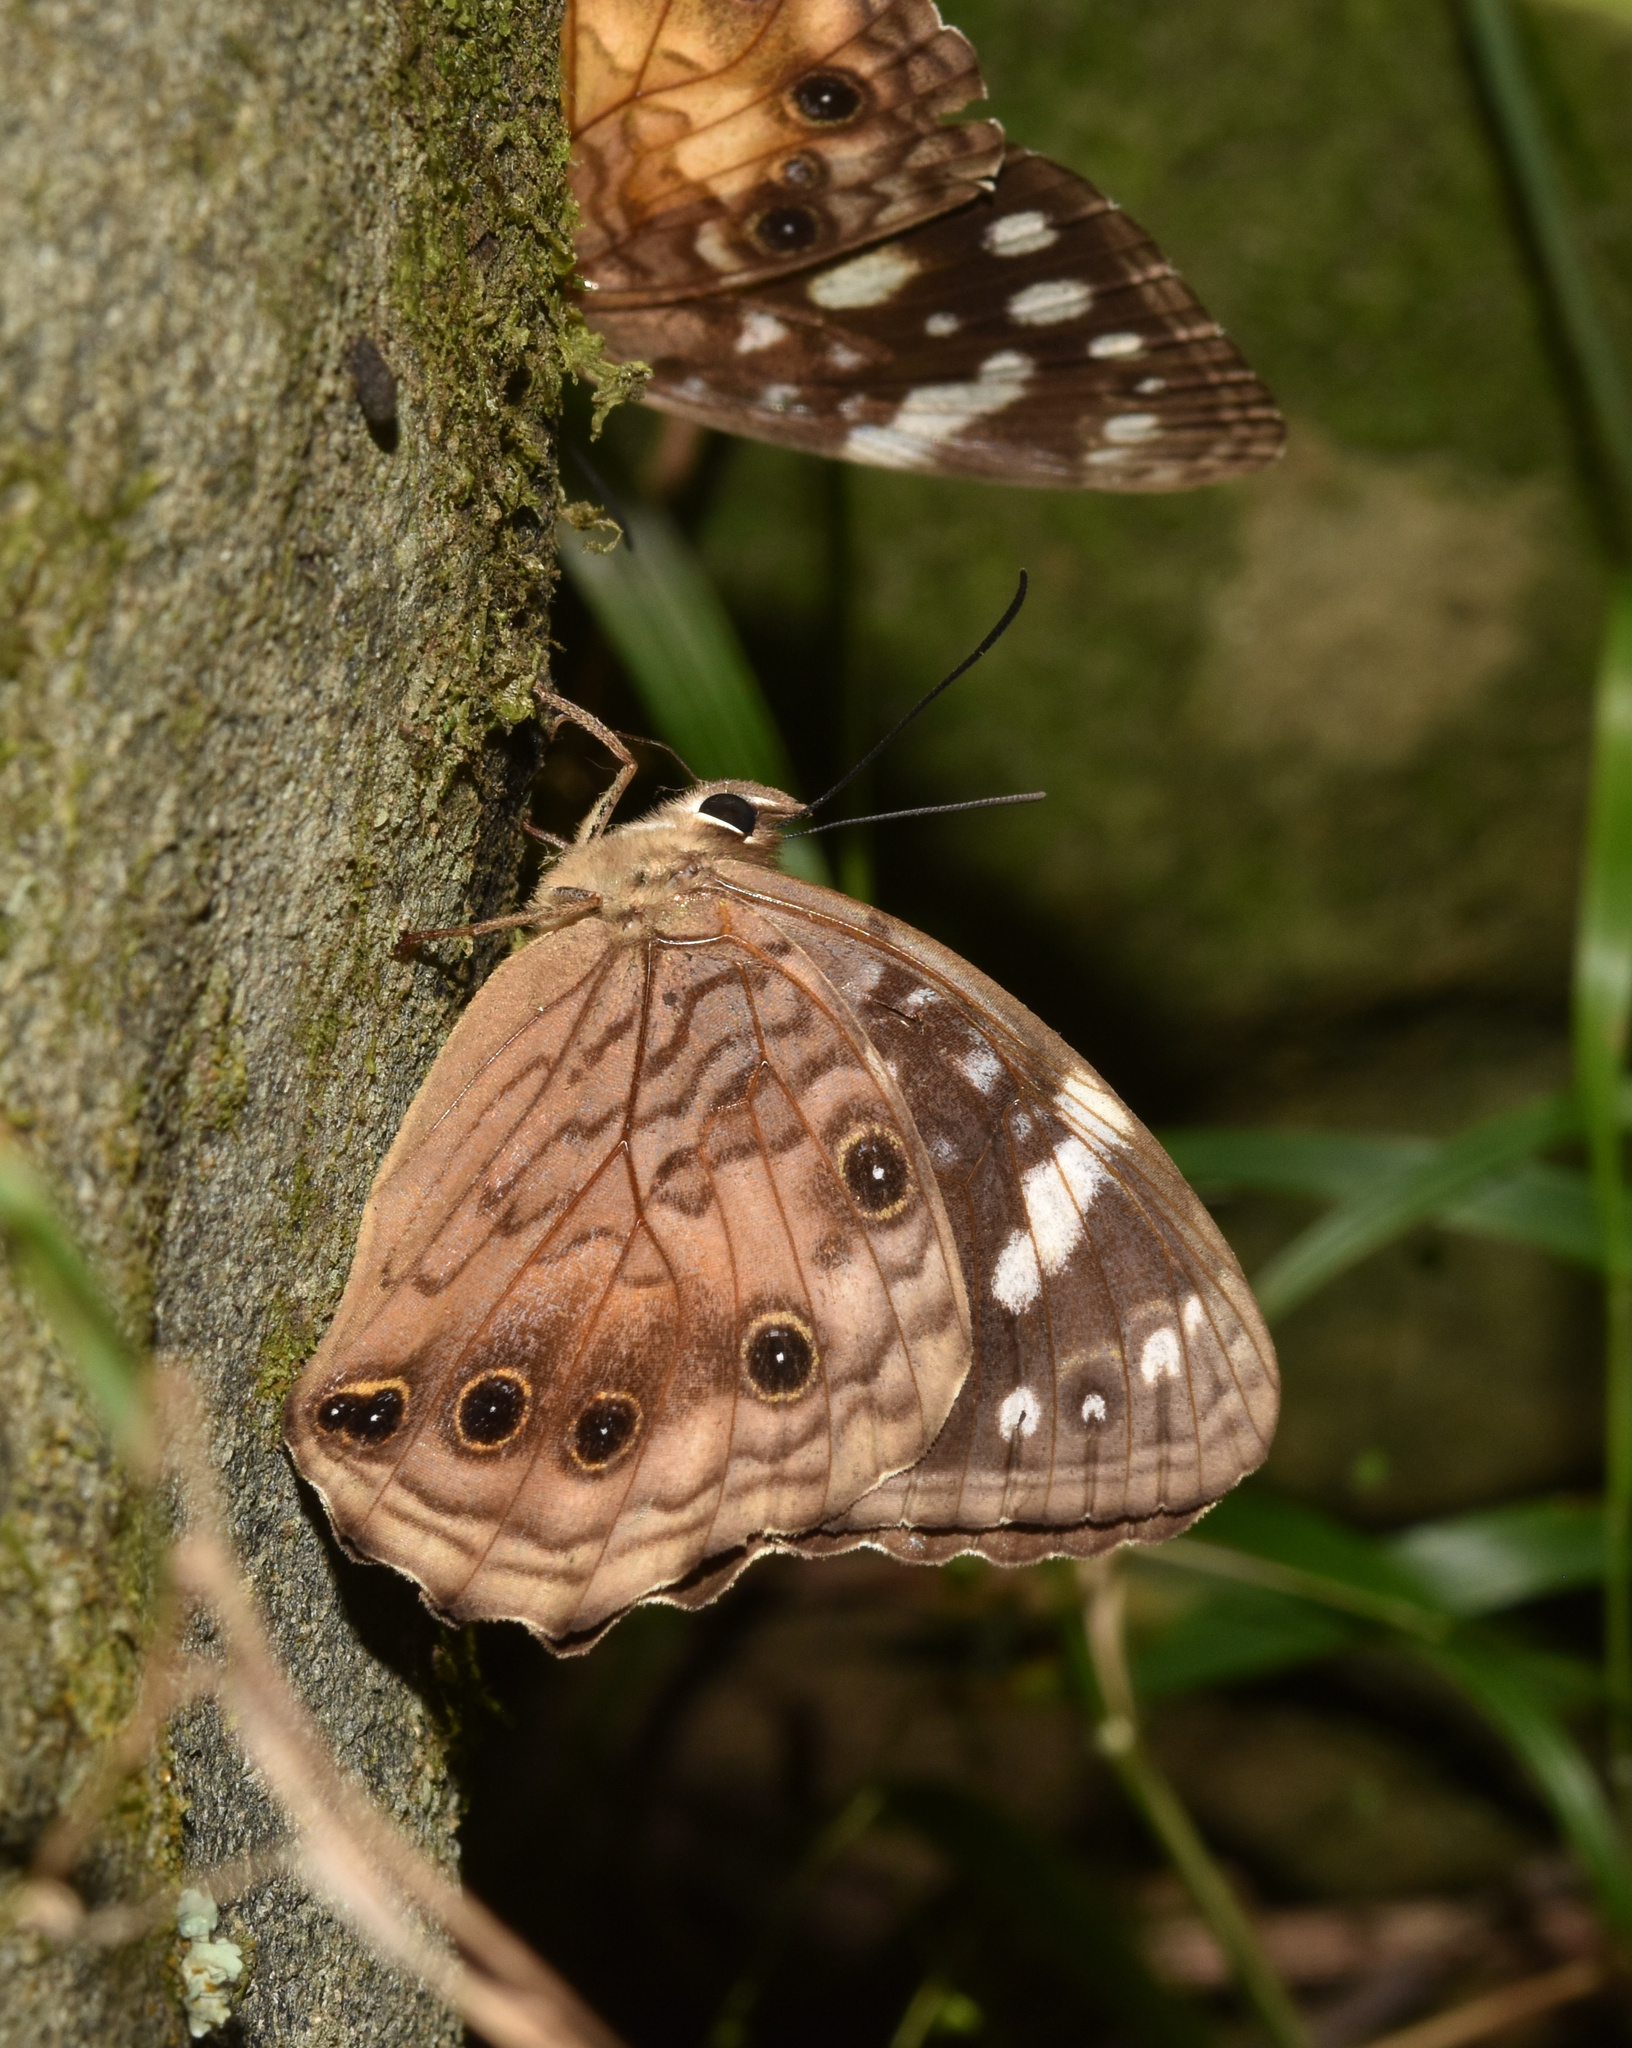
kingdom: Animalia
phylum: Arthropoda
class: Insecta
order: Lepidoptera
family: Nymphalidae
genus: Paralethe
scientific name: Paralethe dendrophilus
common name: Bush beauty
